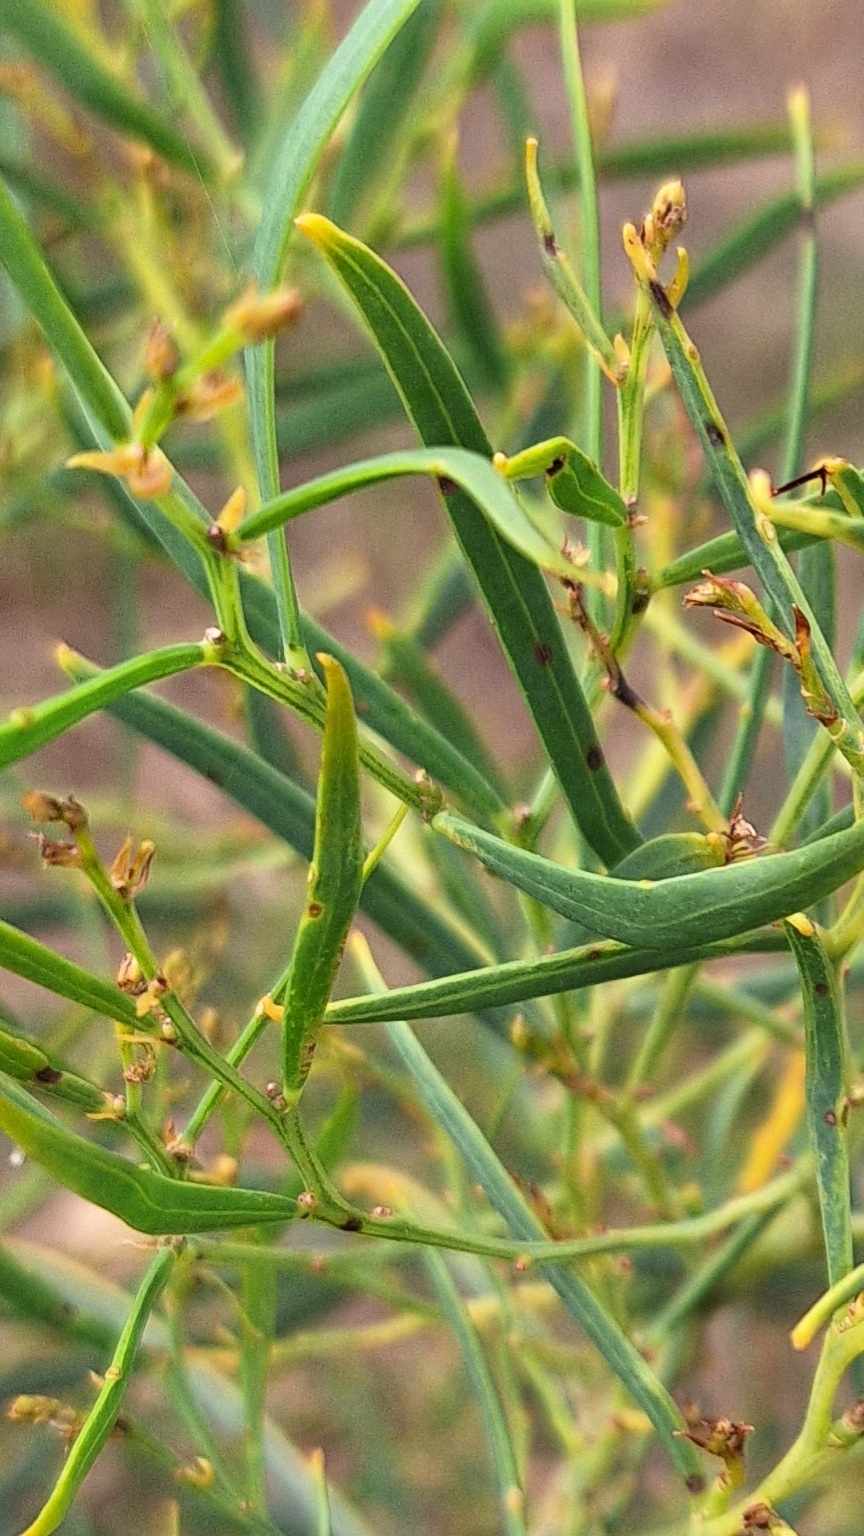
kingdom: Plantae
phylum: Tracheophyta
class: Magnoliopsida
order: Fabales
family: Fabaceae
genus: Acacia
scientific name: Acacia ligulata
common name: Dune wattle
